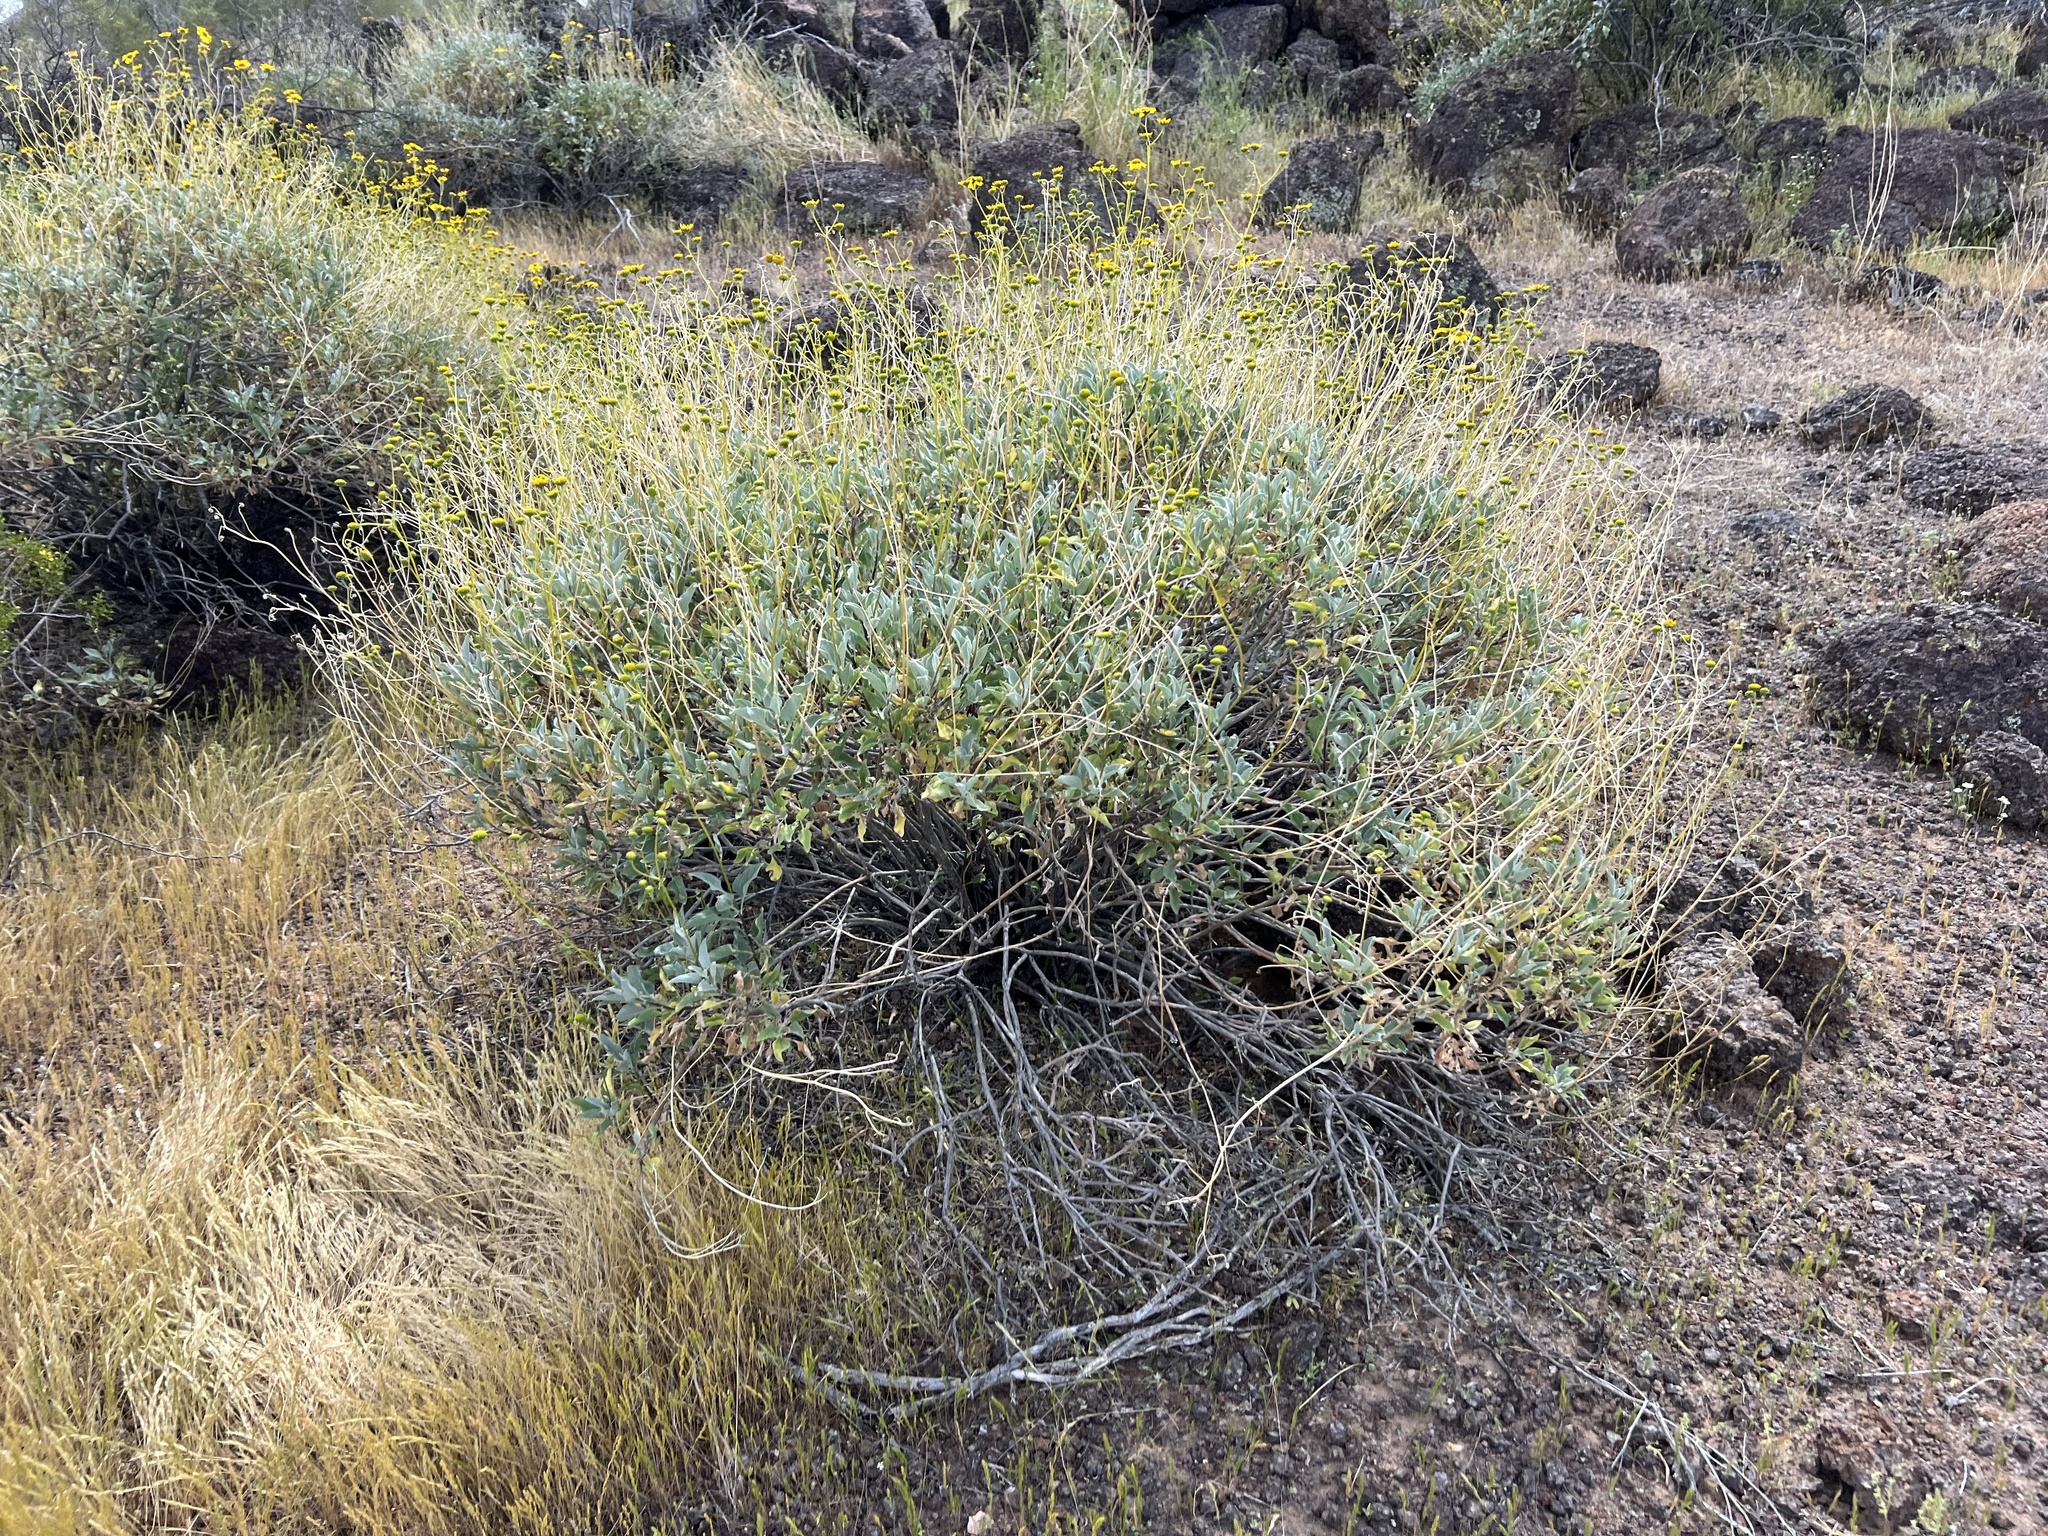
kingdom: Plantae
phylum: Tracheophyta
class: Magnoliopsida
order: Asterales
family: Asteraceae
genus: Encelia
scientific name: Encelia farinosa
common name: Brittlebush
